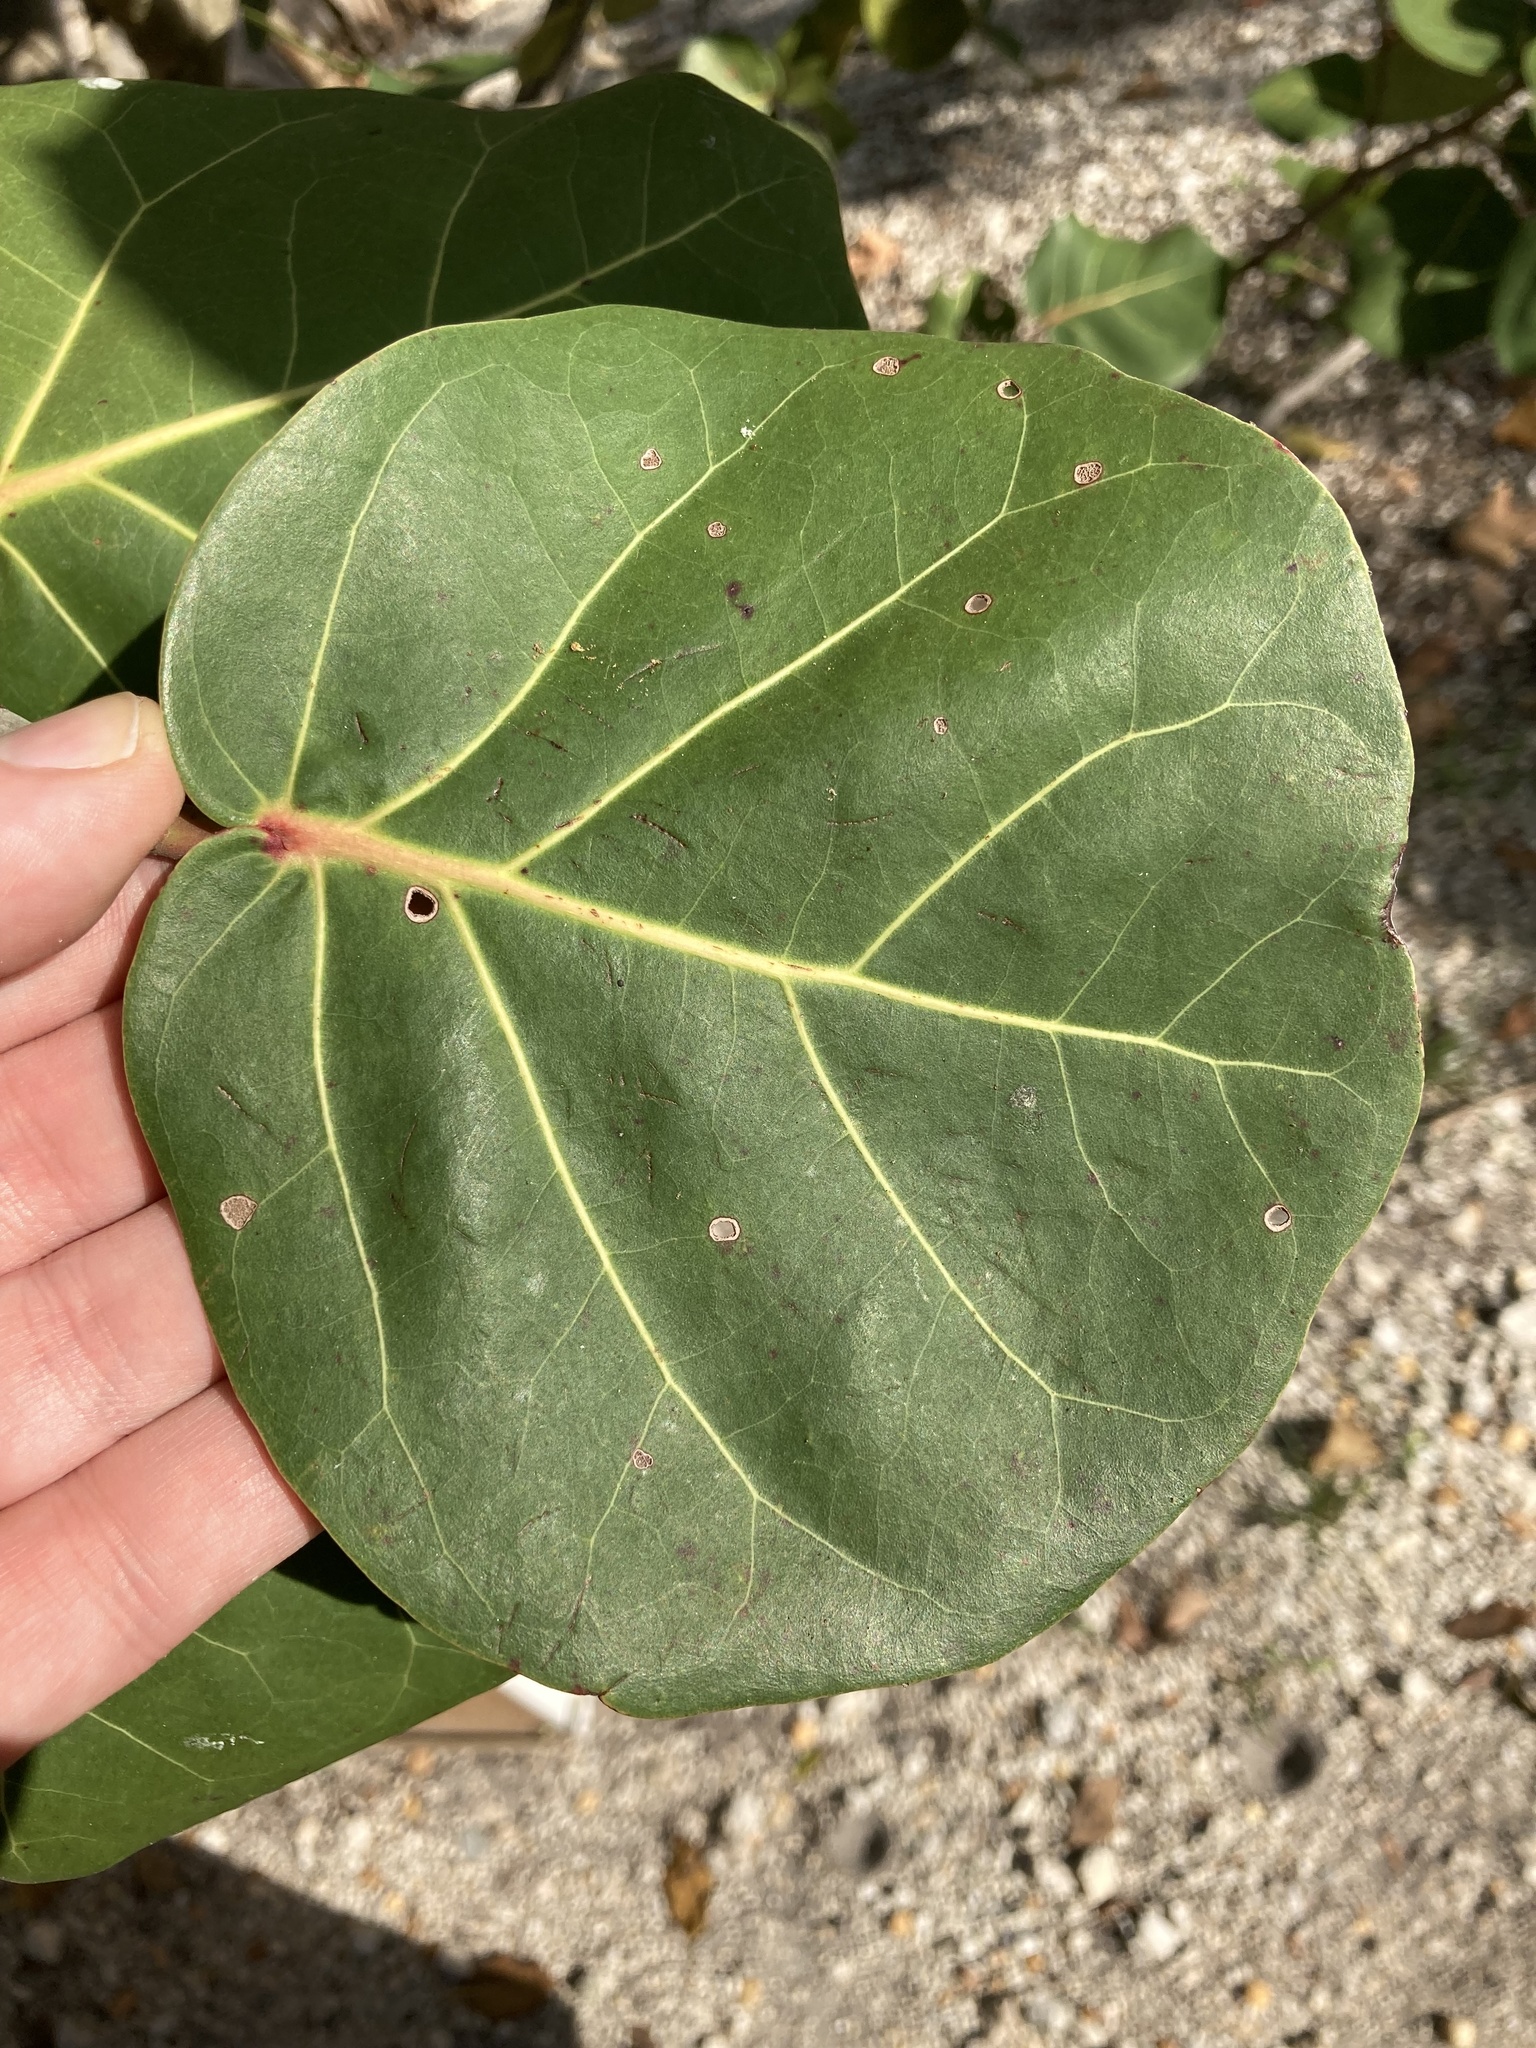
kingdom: Plantae
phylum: Tracheophyta
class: Magnoliopsida
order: Caryophyllales
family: Polygonaceae
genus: Coccoloba
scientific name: Coccoloba uvifera
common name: Seagrape
